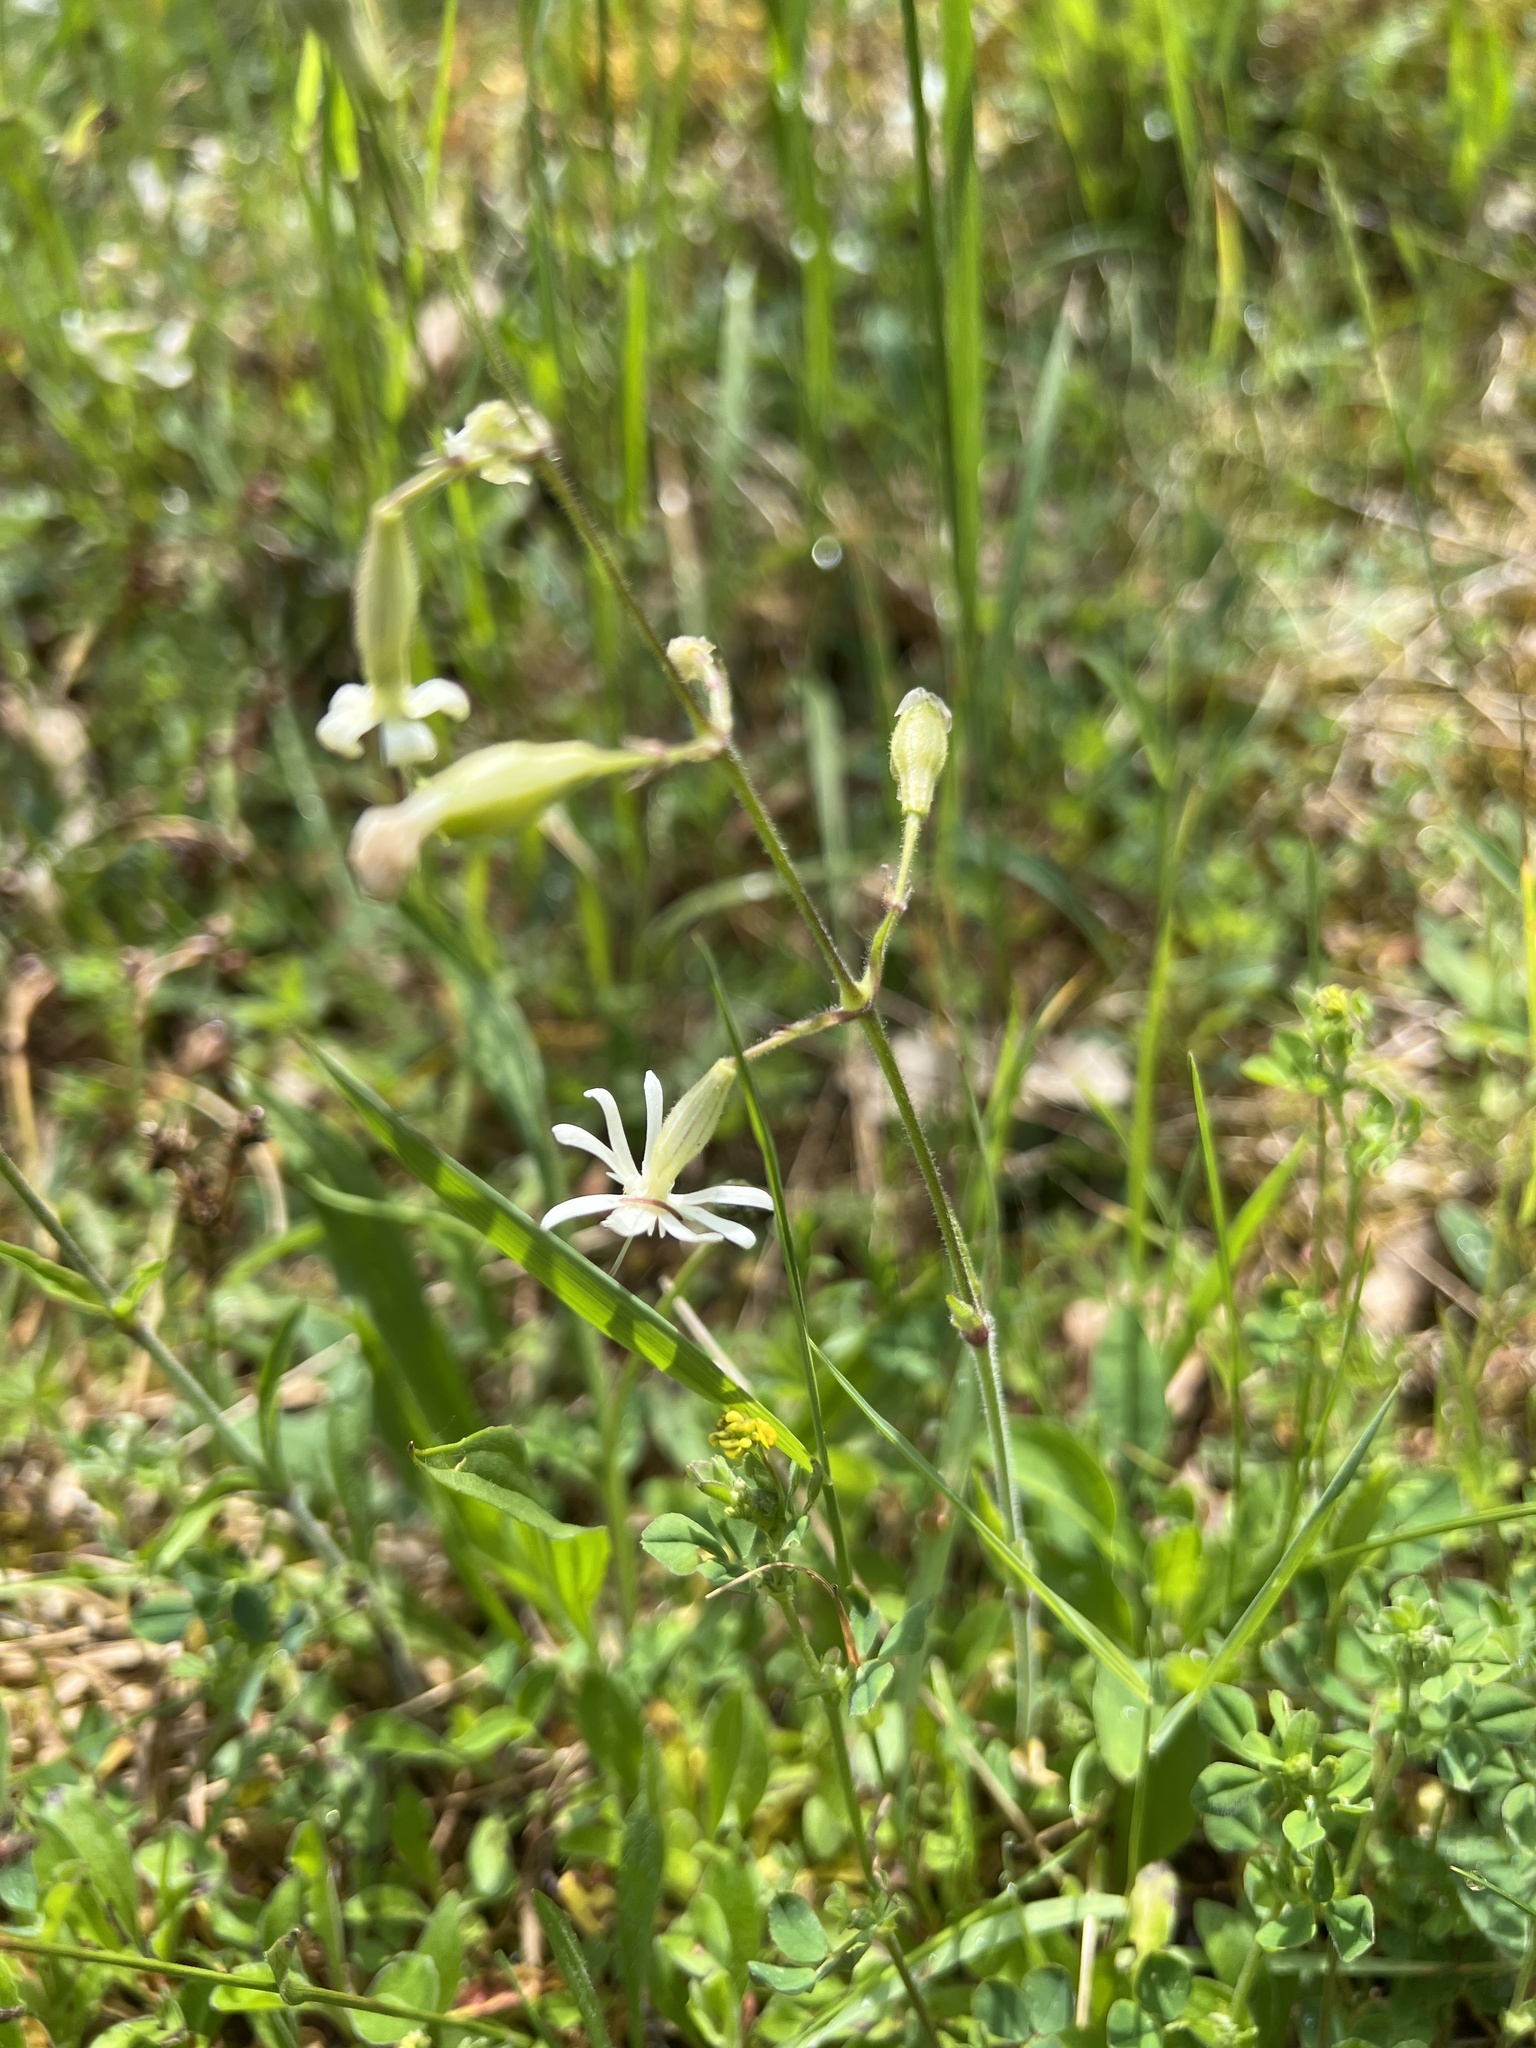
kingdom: Plantae
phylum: Tracheophyta
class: Magnoliopsida
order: Caryophyllales
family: Caryophyllaceae
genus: Silene
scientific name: Silene nutans
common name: Nottingham catchfly
